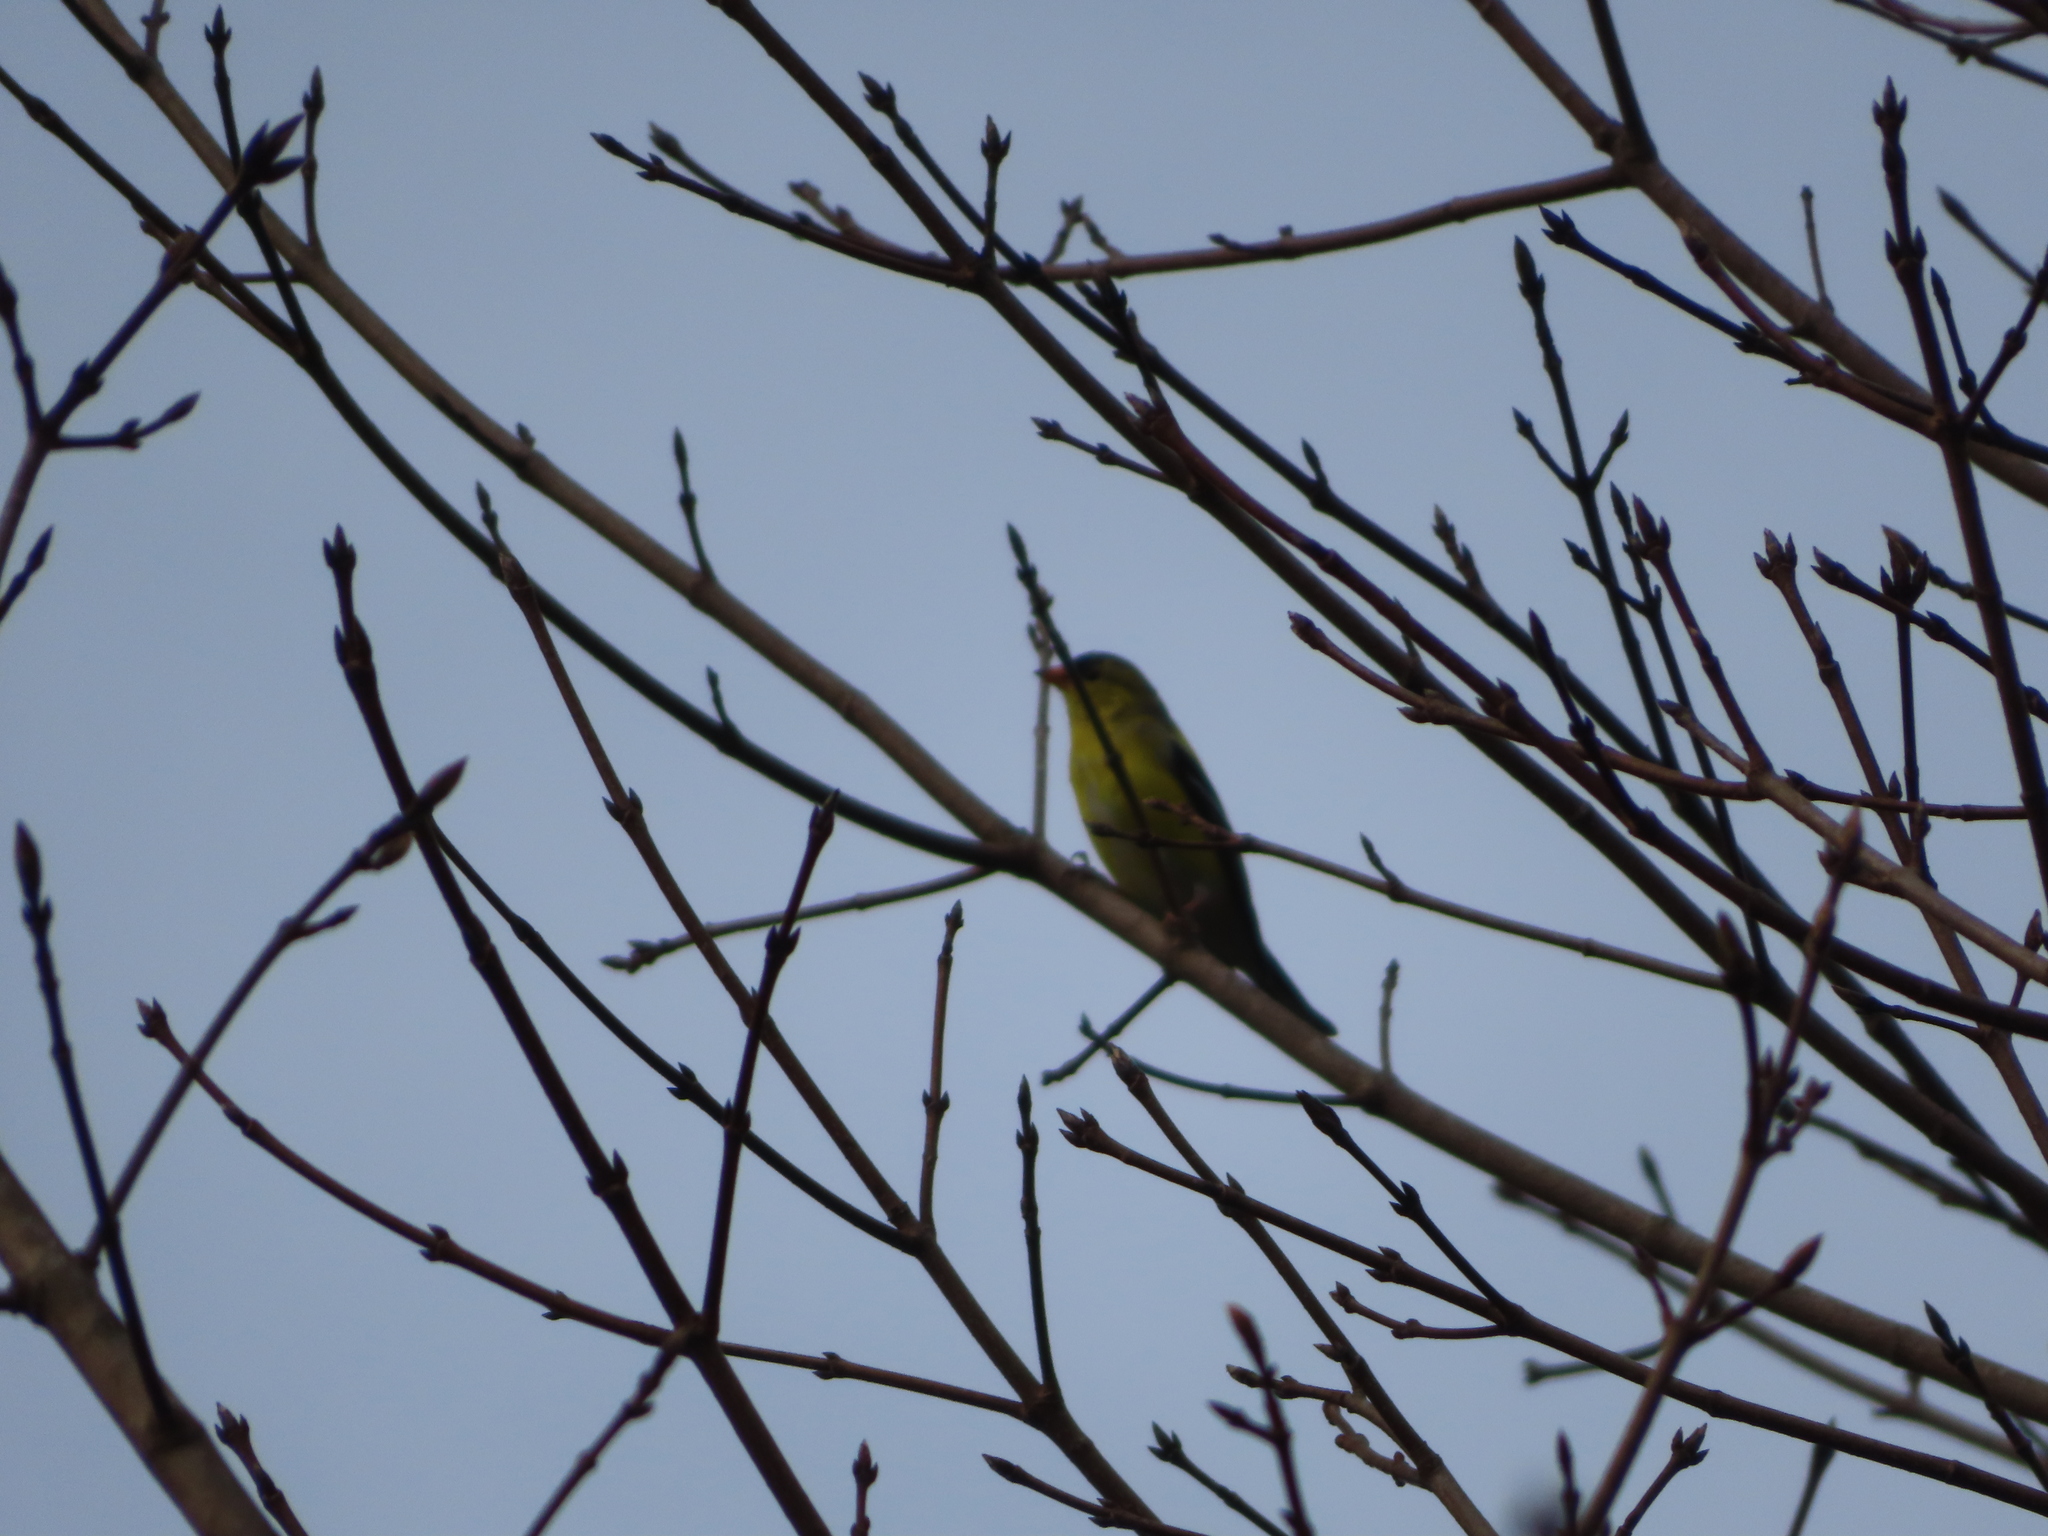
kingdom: Animalia
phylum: Chordata
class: Aves
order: Passeriformes
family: Fringillidae
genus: Spinus
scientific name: Spinus tristis
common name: American goldfinch
